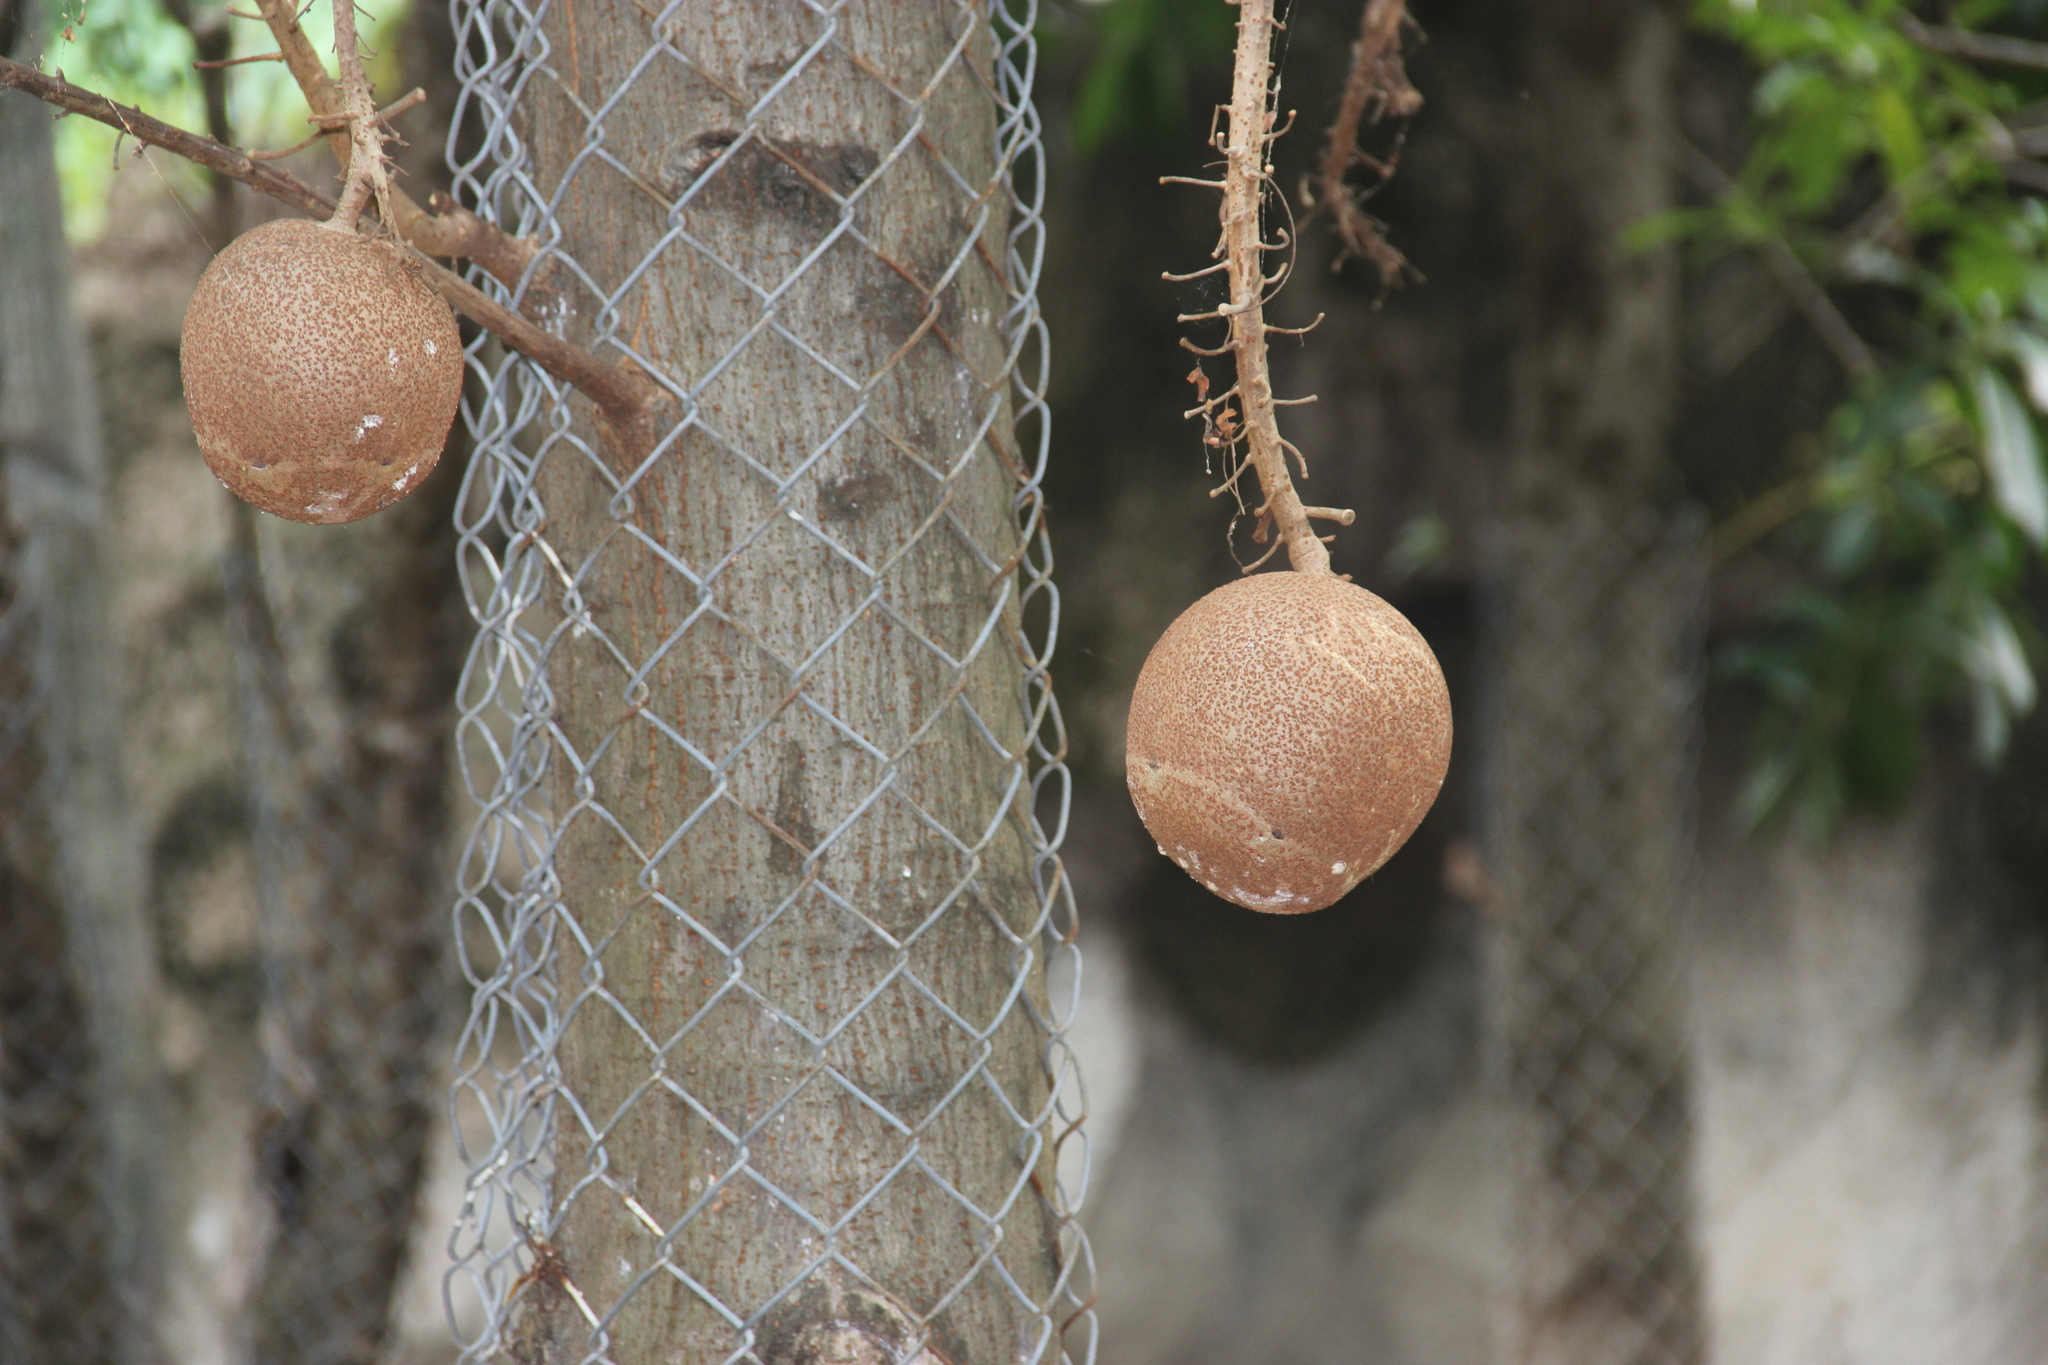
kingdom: Plantae
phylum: Tracheophyta
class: Magnoliopsida
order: Ericales
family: Lecythidaceae
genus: Couroupita
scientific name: Couroupita guianensis
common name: Cannonball tree
